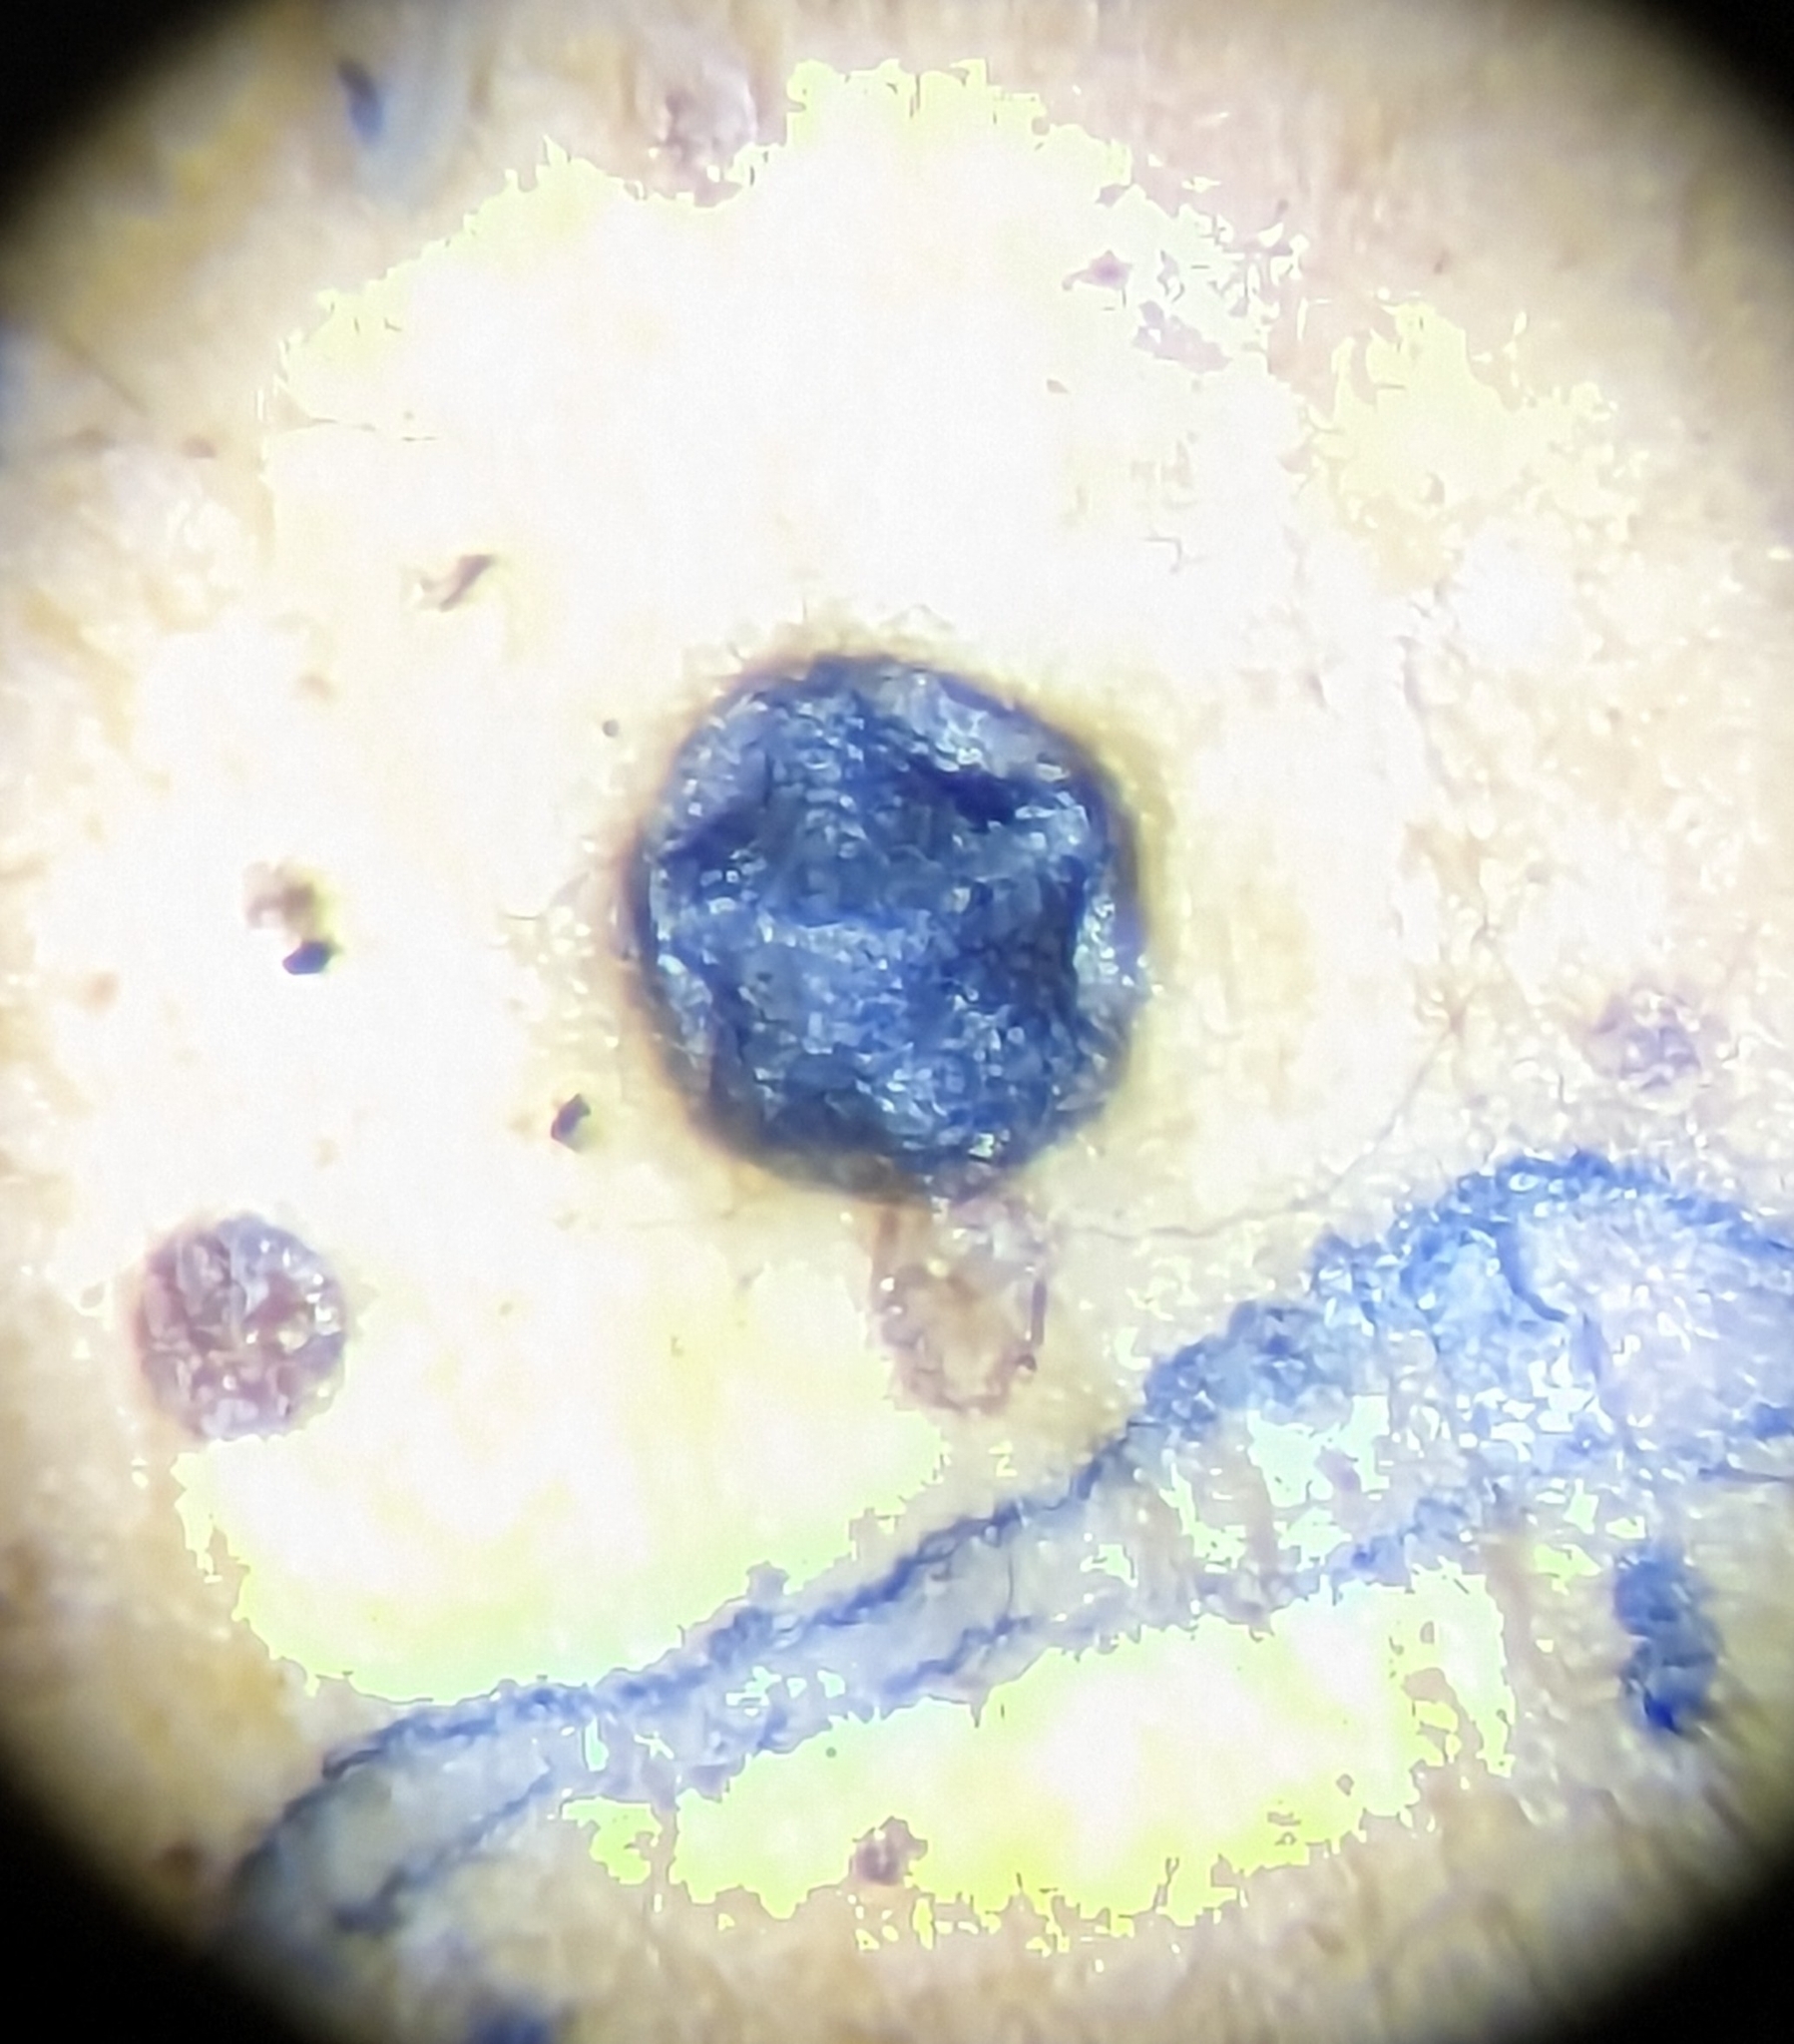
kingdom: Fungi
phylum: Ascomycota
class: Leotiomycetes
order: Rhytismatales
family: Rhytismataceae
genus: Coccomyces
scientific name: Coccomyces dentatus
